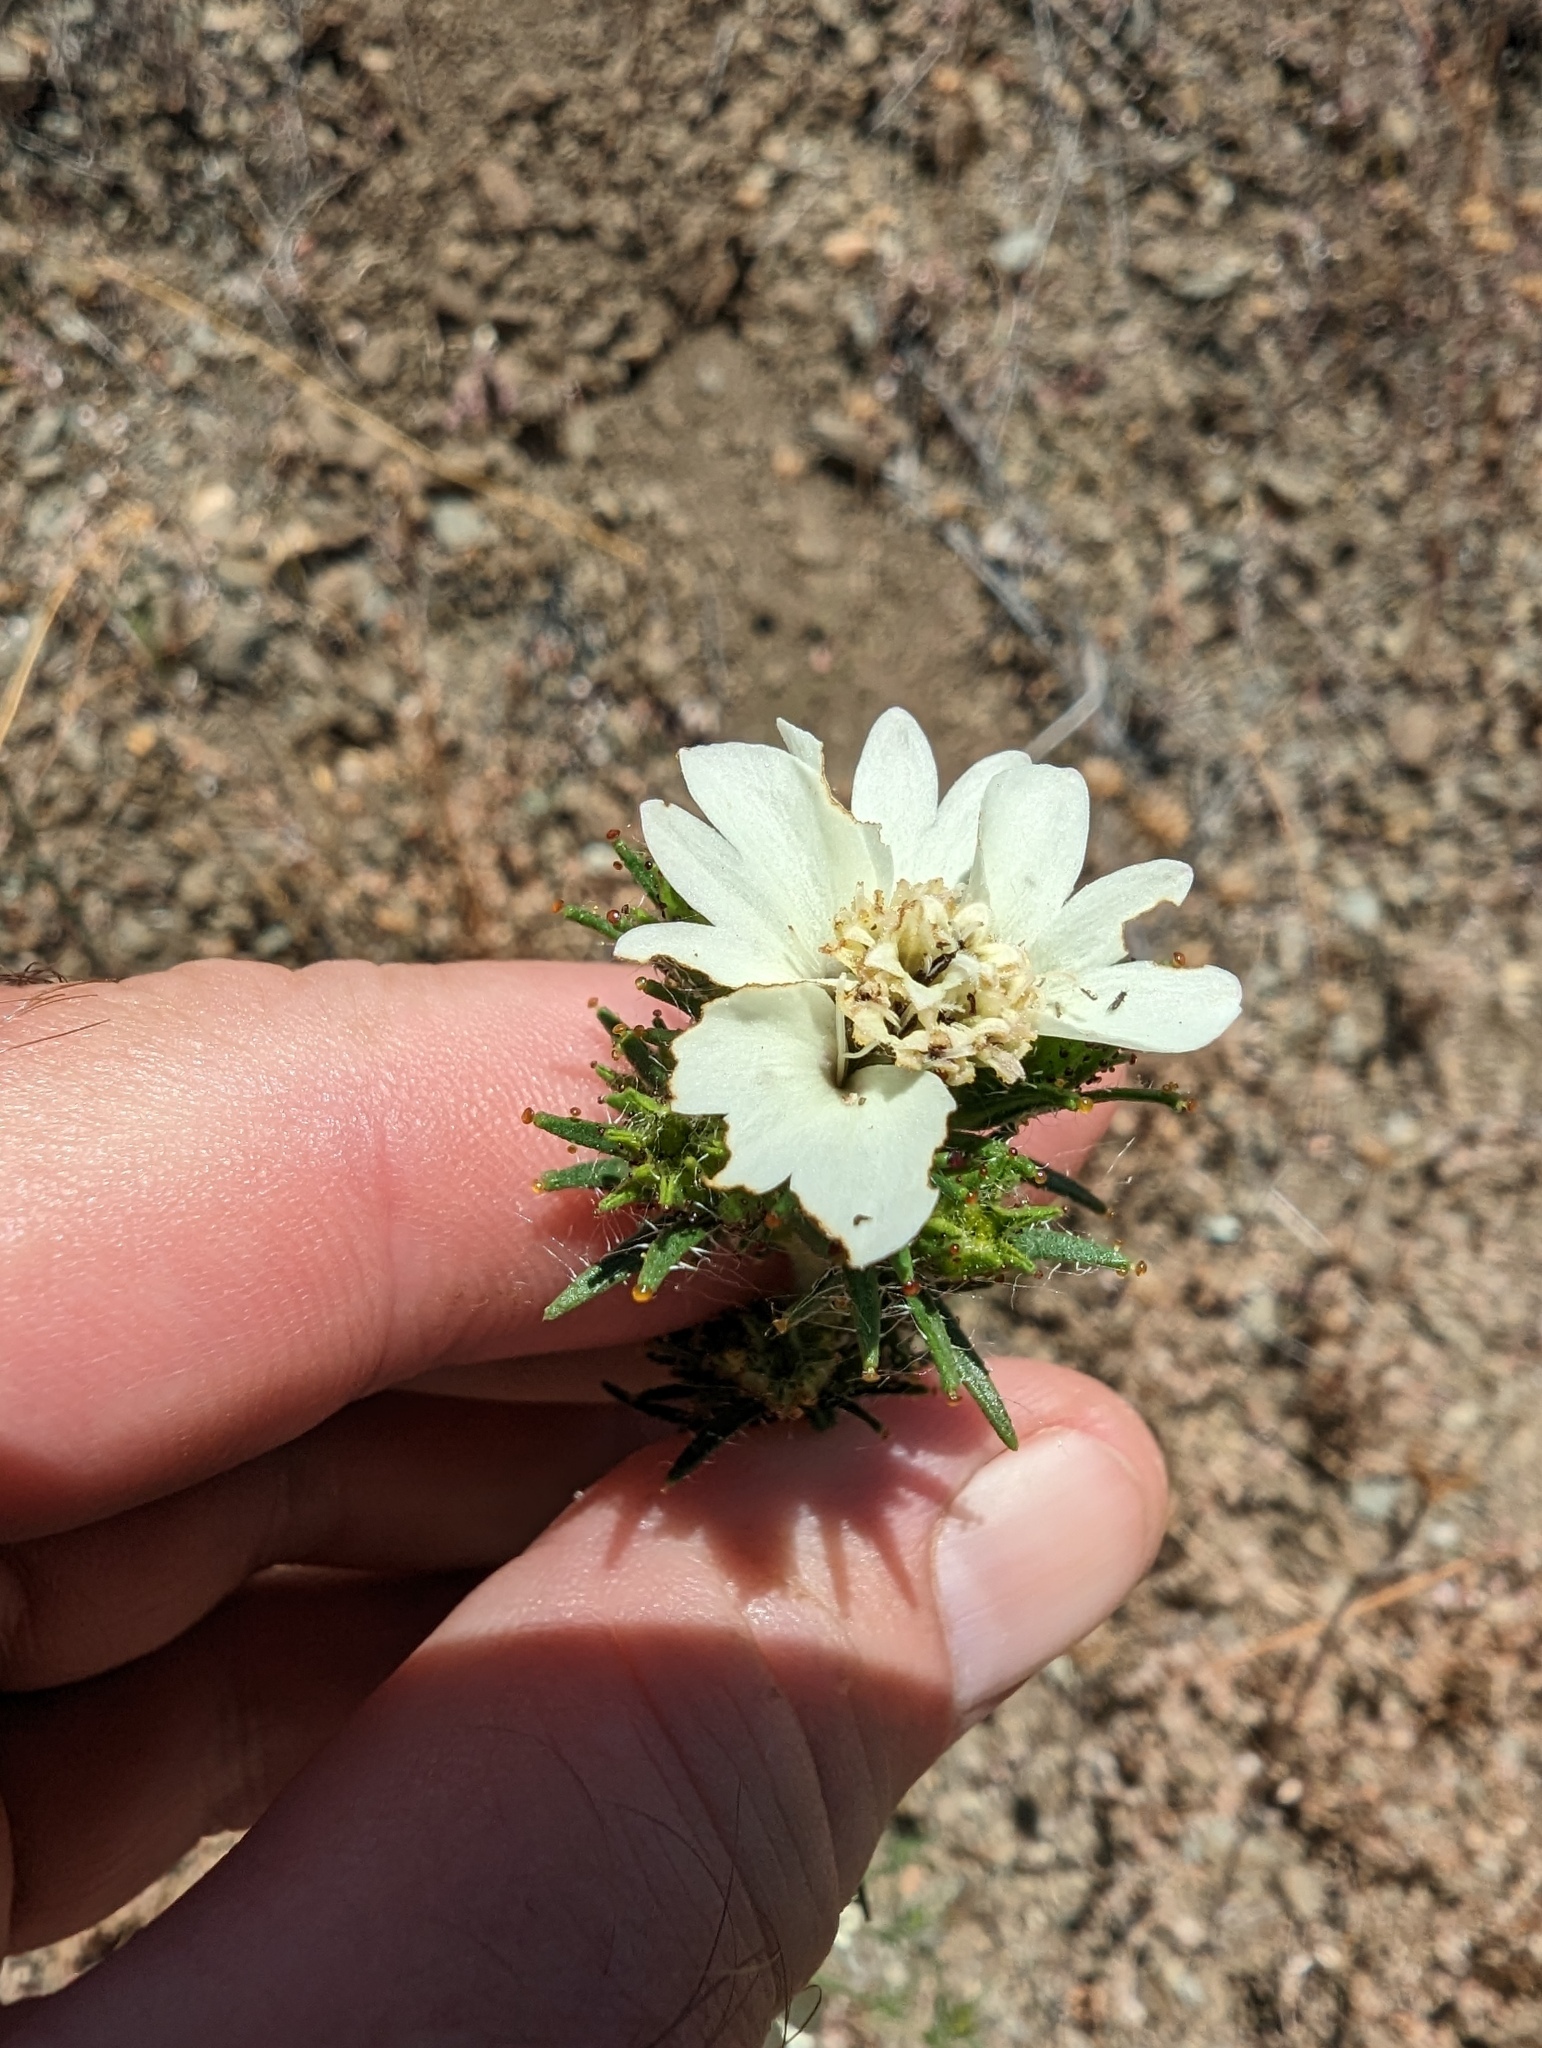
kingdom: Plantae
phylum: Tracheophyta
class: Magnoliopsida
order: Asterales
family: Asteraceae
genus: Calycadenia
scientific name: Calycadenia multiglandulosa
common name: Sticky calycadenia
